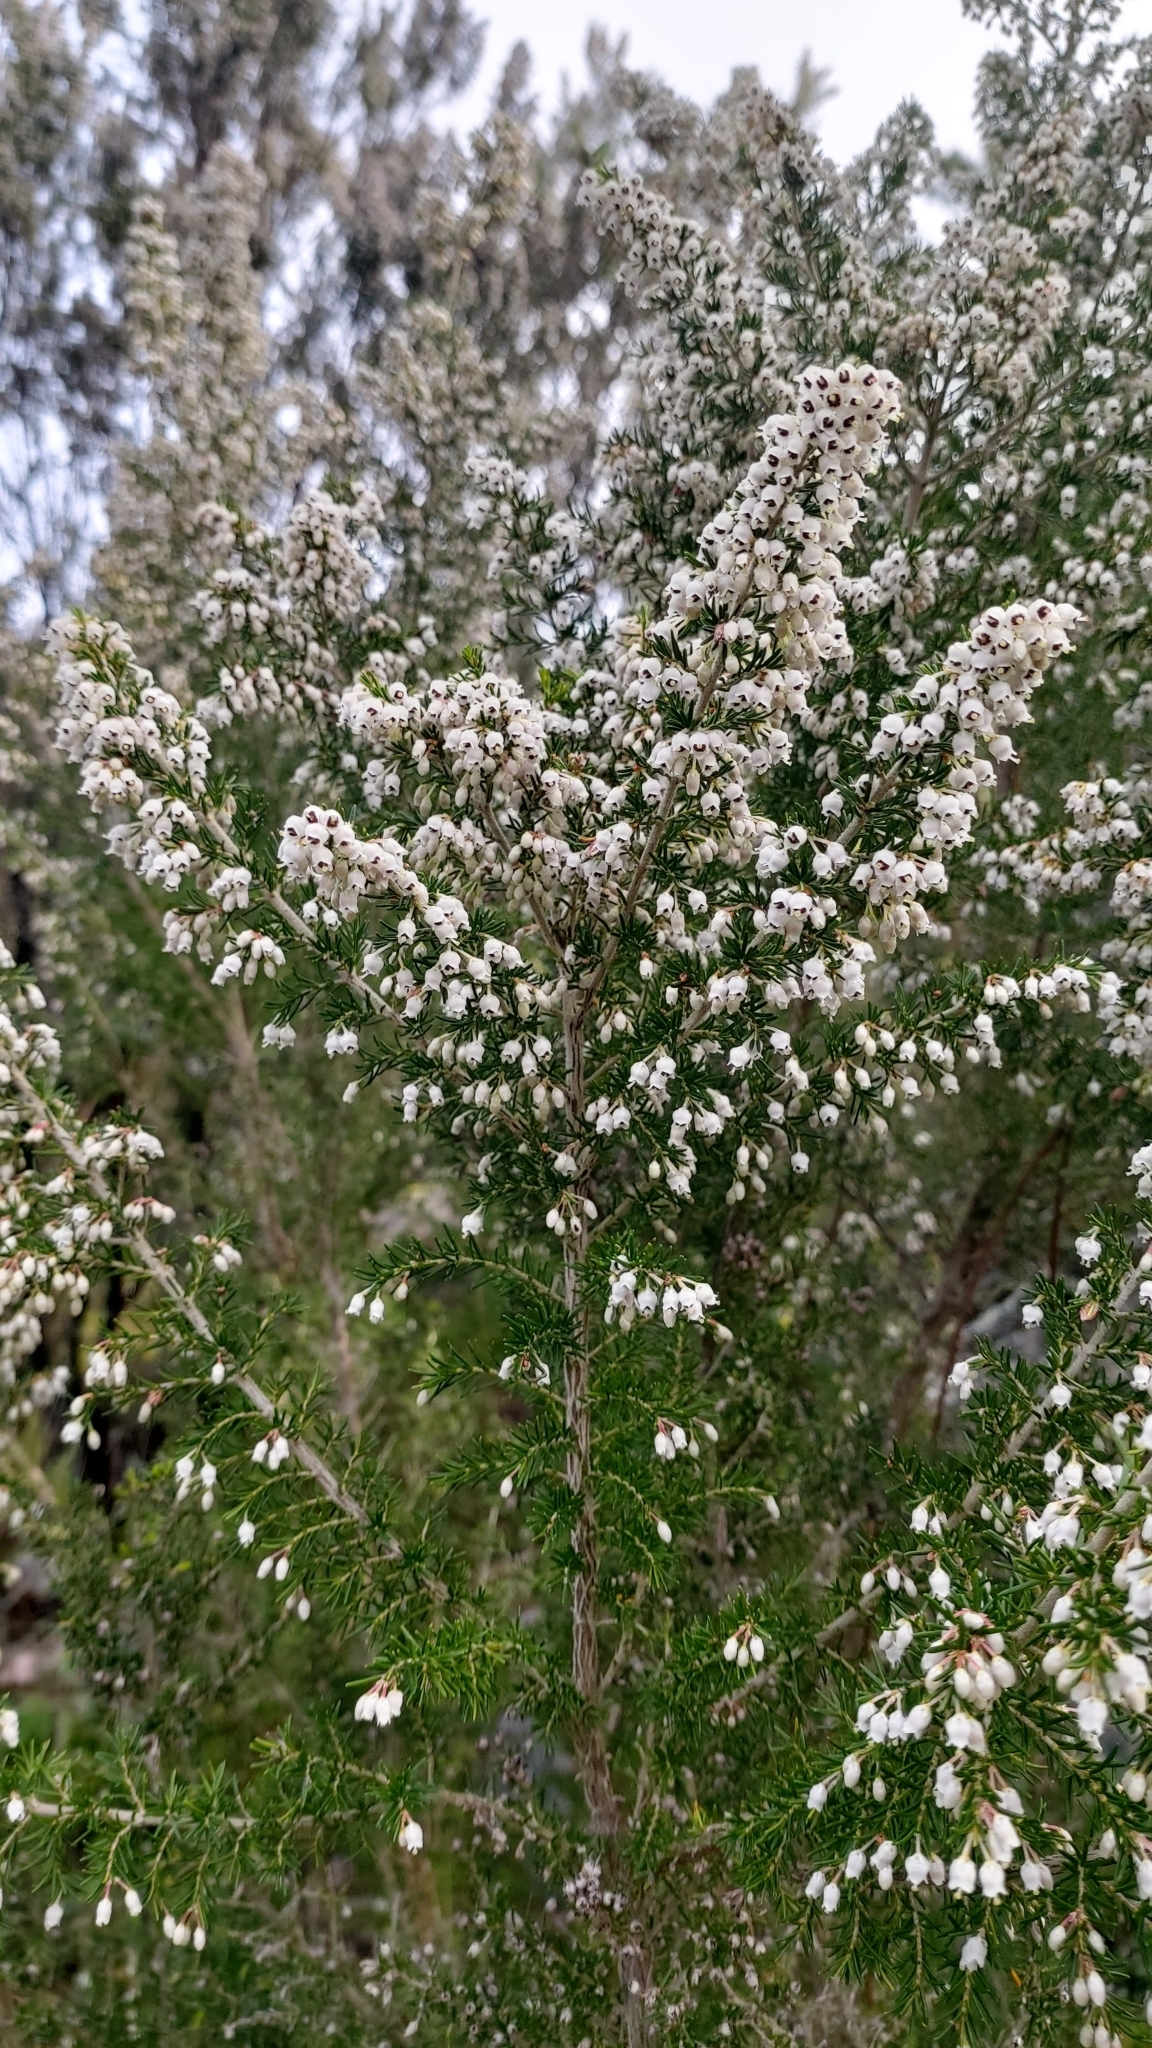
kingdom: Plantae
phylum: Tracheophyta
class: Magnoliopsida
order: Ericales
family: Ericaceae
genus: Erica
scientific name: Erica arborea
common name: Tree heath
